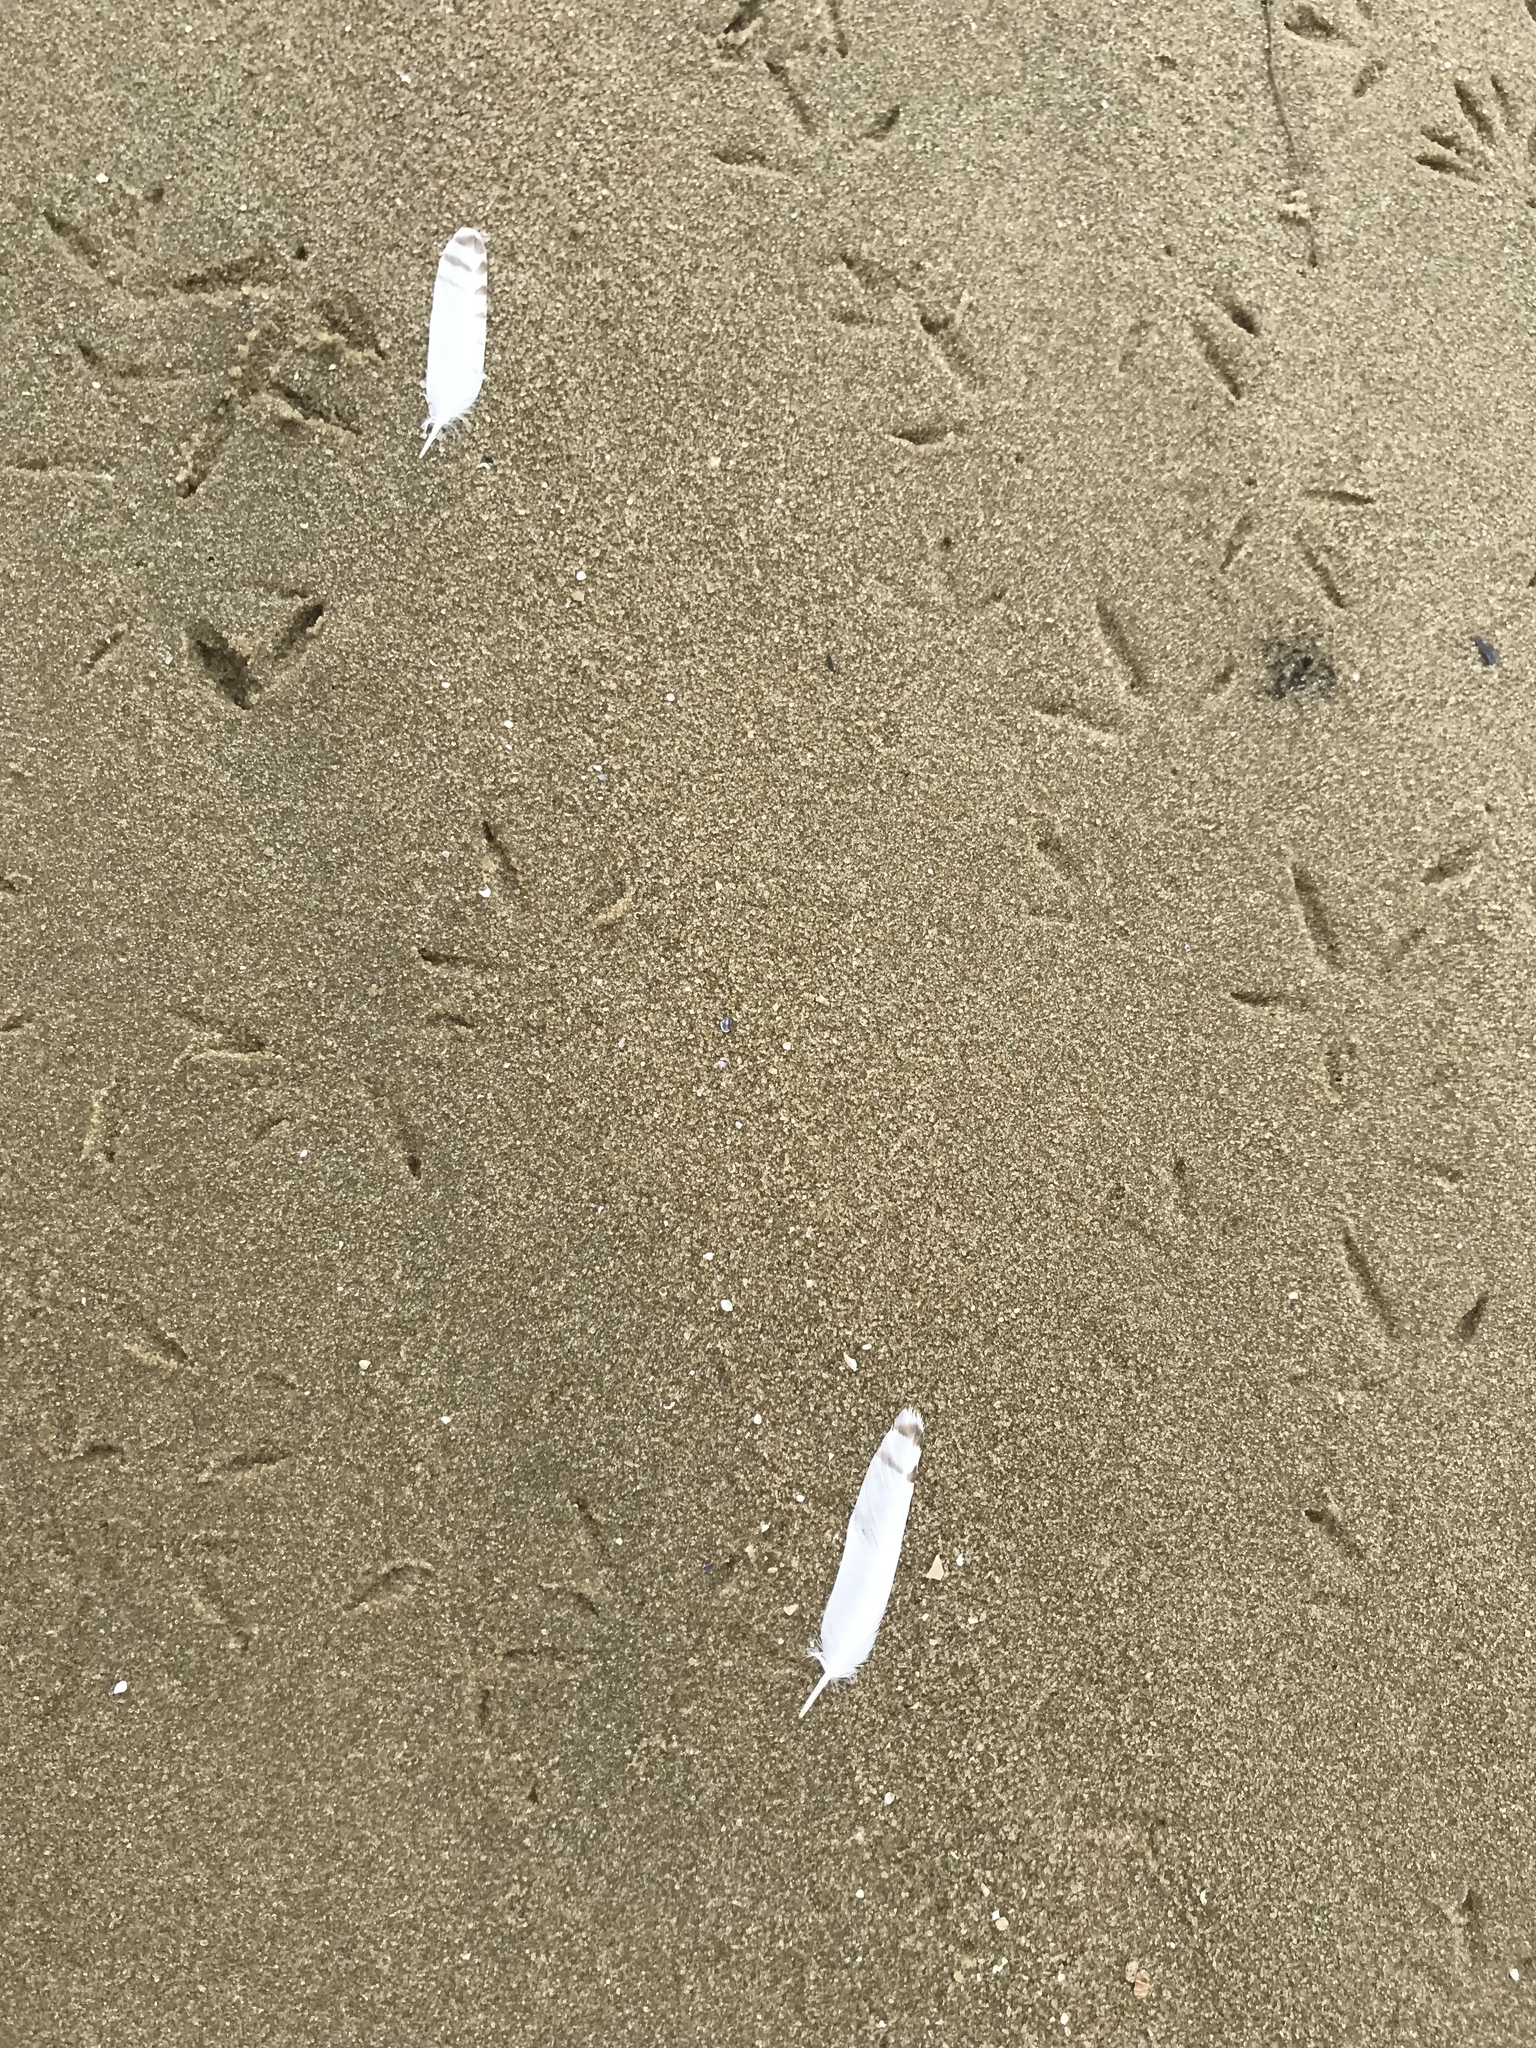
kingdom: Animalia
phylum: Chordata
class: Aves
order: Charadriiformes
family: Charadriidae
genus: Pluvialis
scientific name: Pluvialis squatarola
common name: Grey plover
